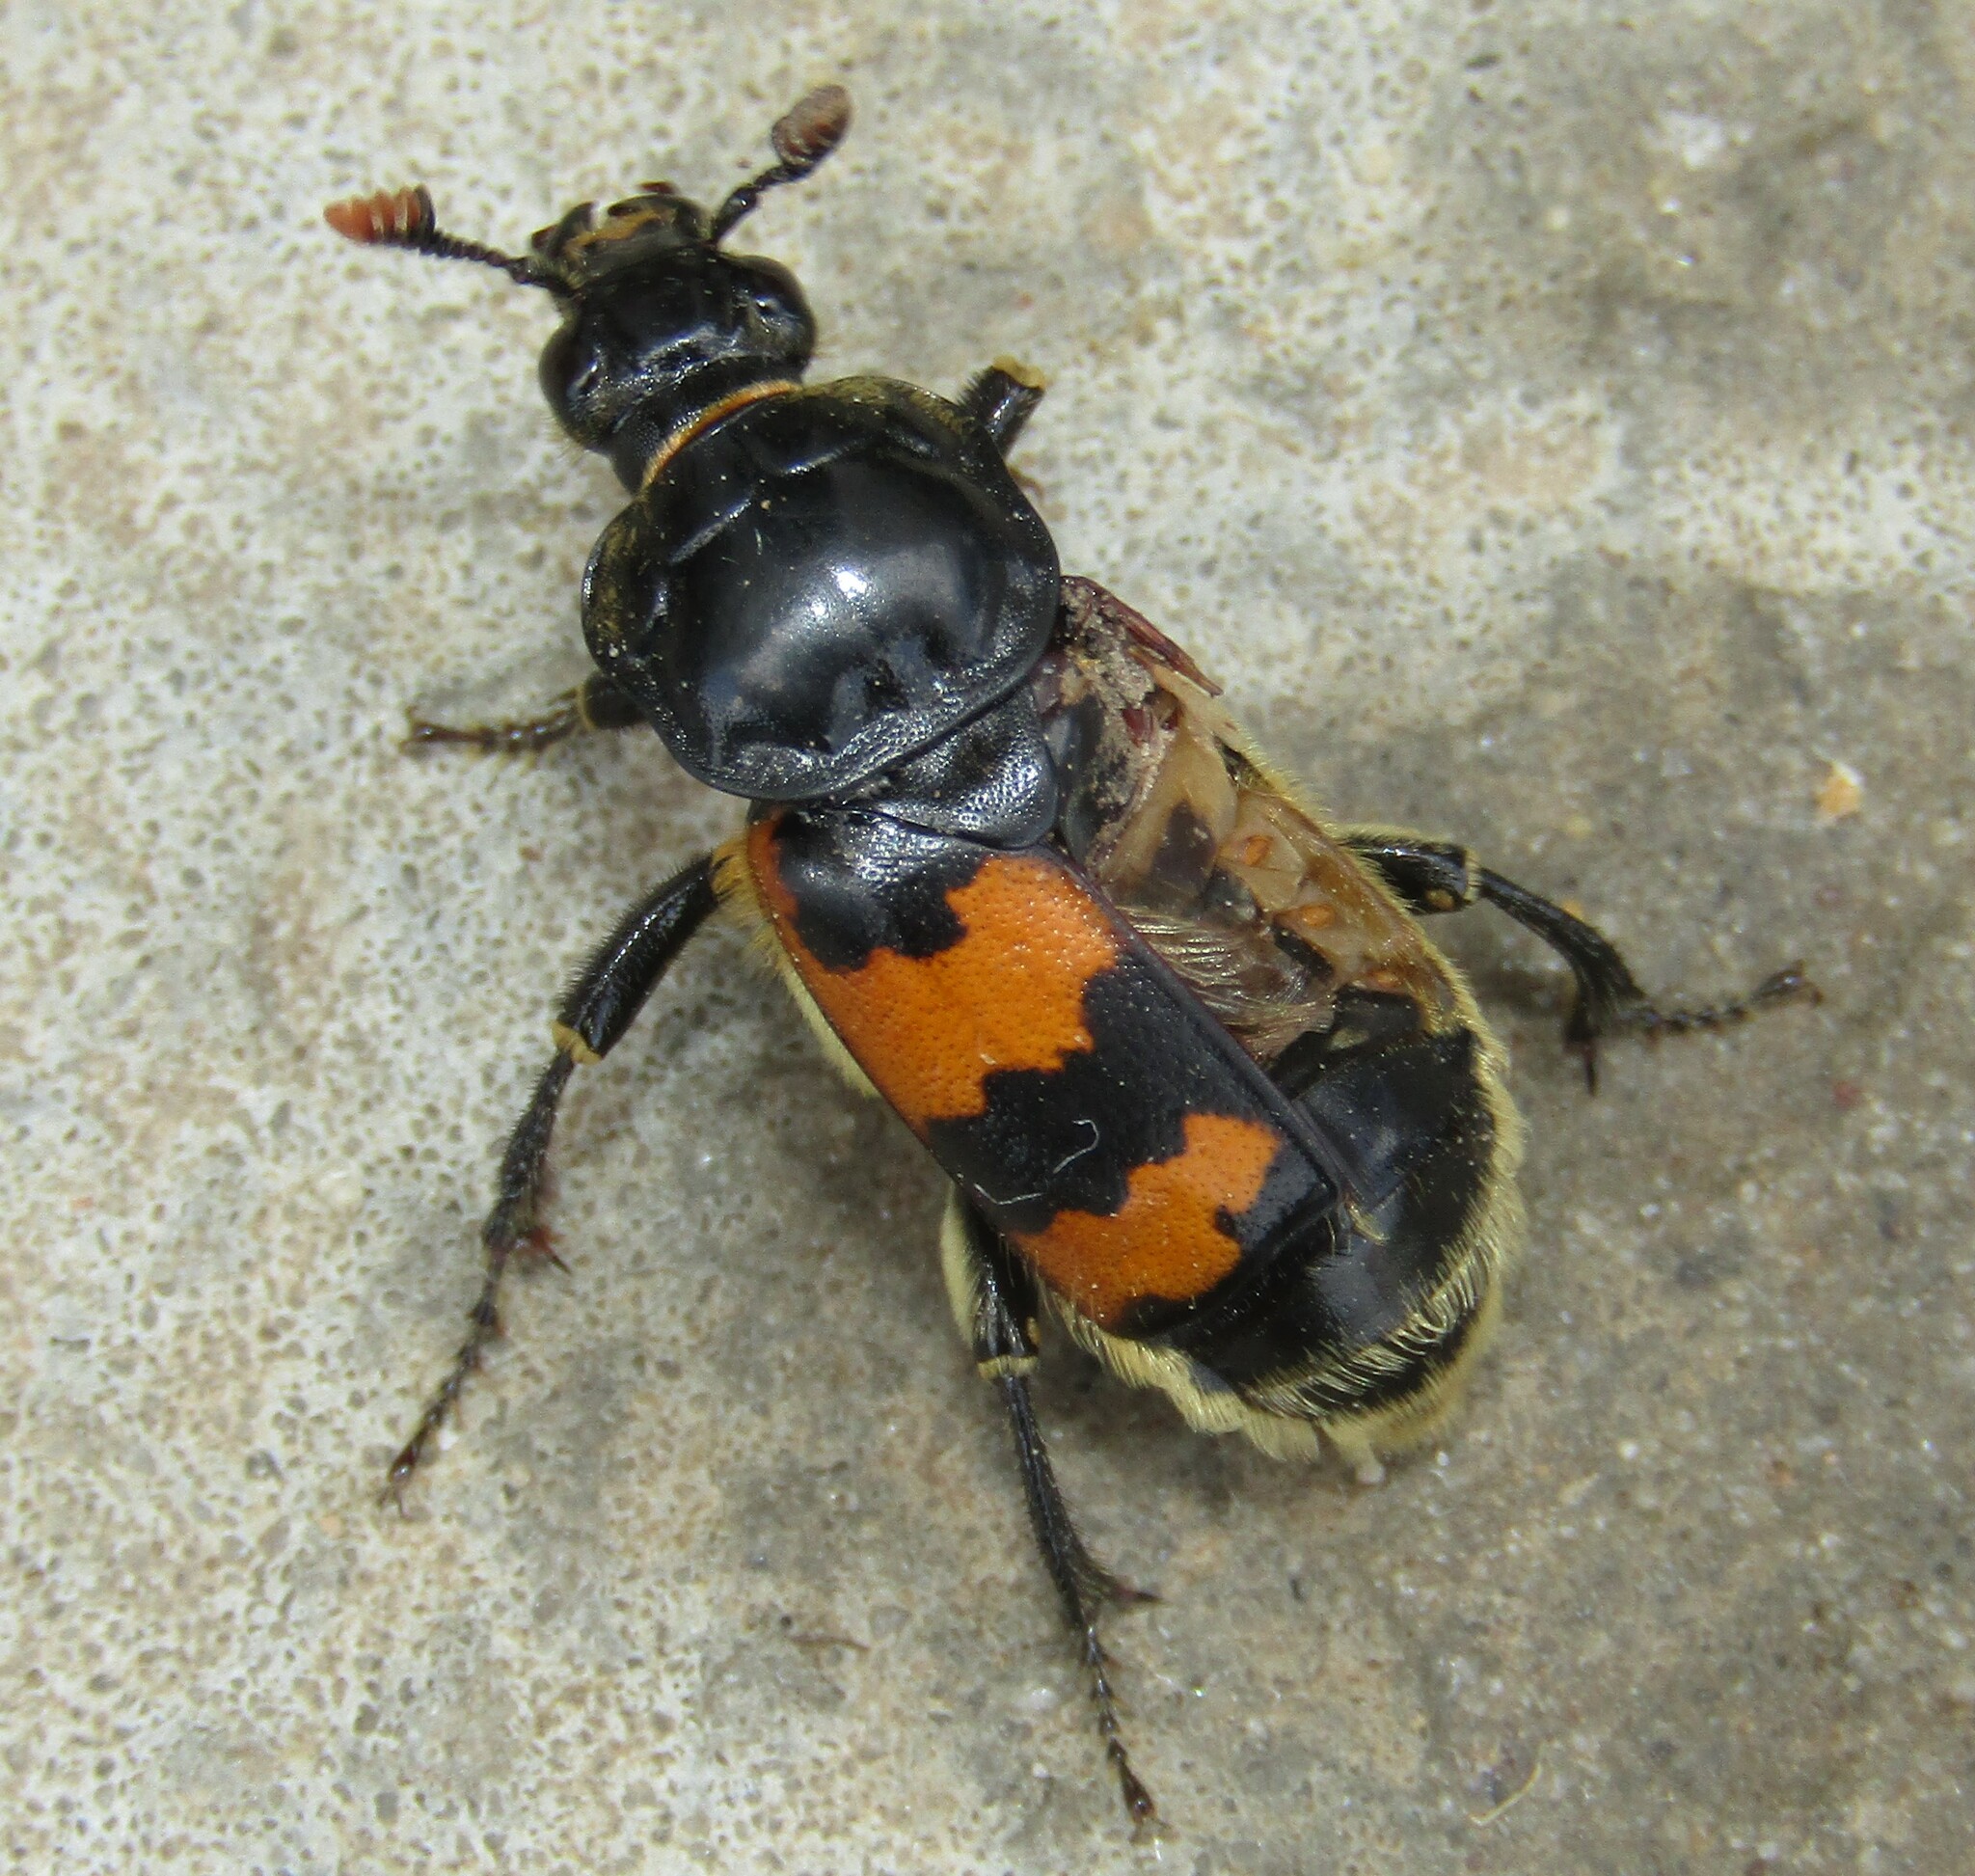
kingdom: Animalia
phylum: Arthropoda
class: Insecta
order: Coleoptera
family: Staphylinidae
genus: Nicrophorus
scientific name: Nicrophorus vespillo
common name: Common burying beetle
